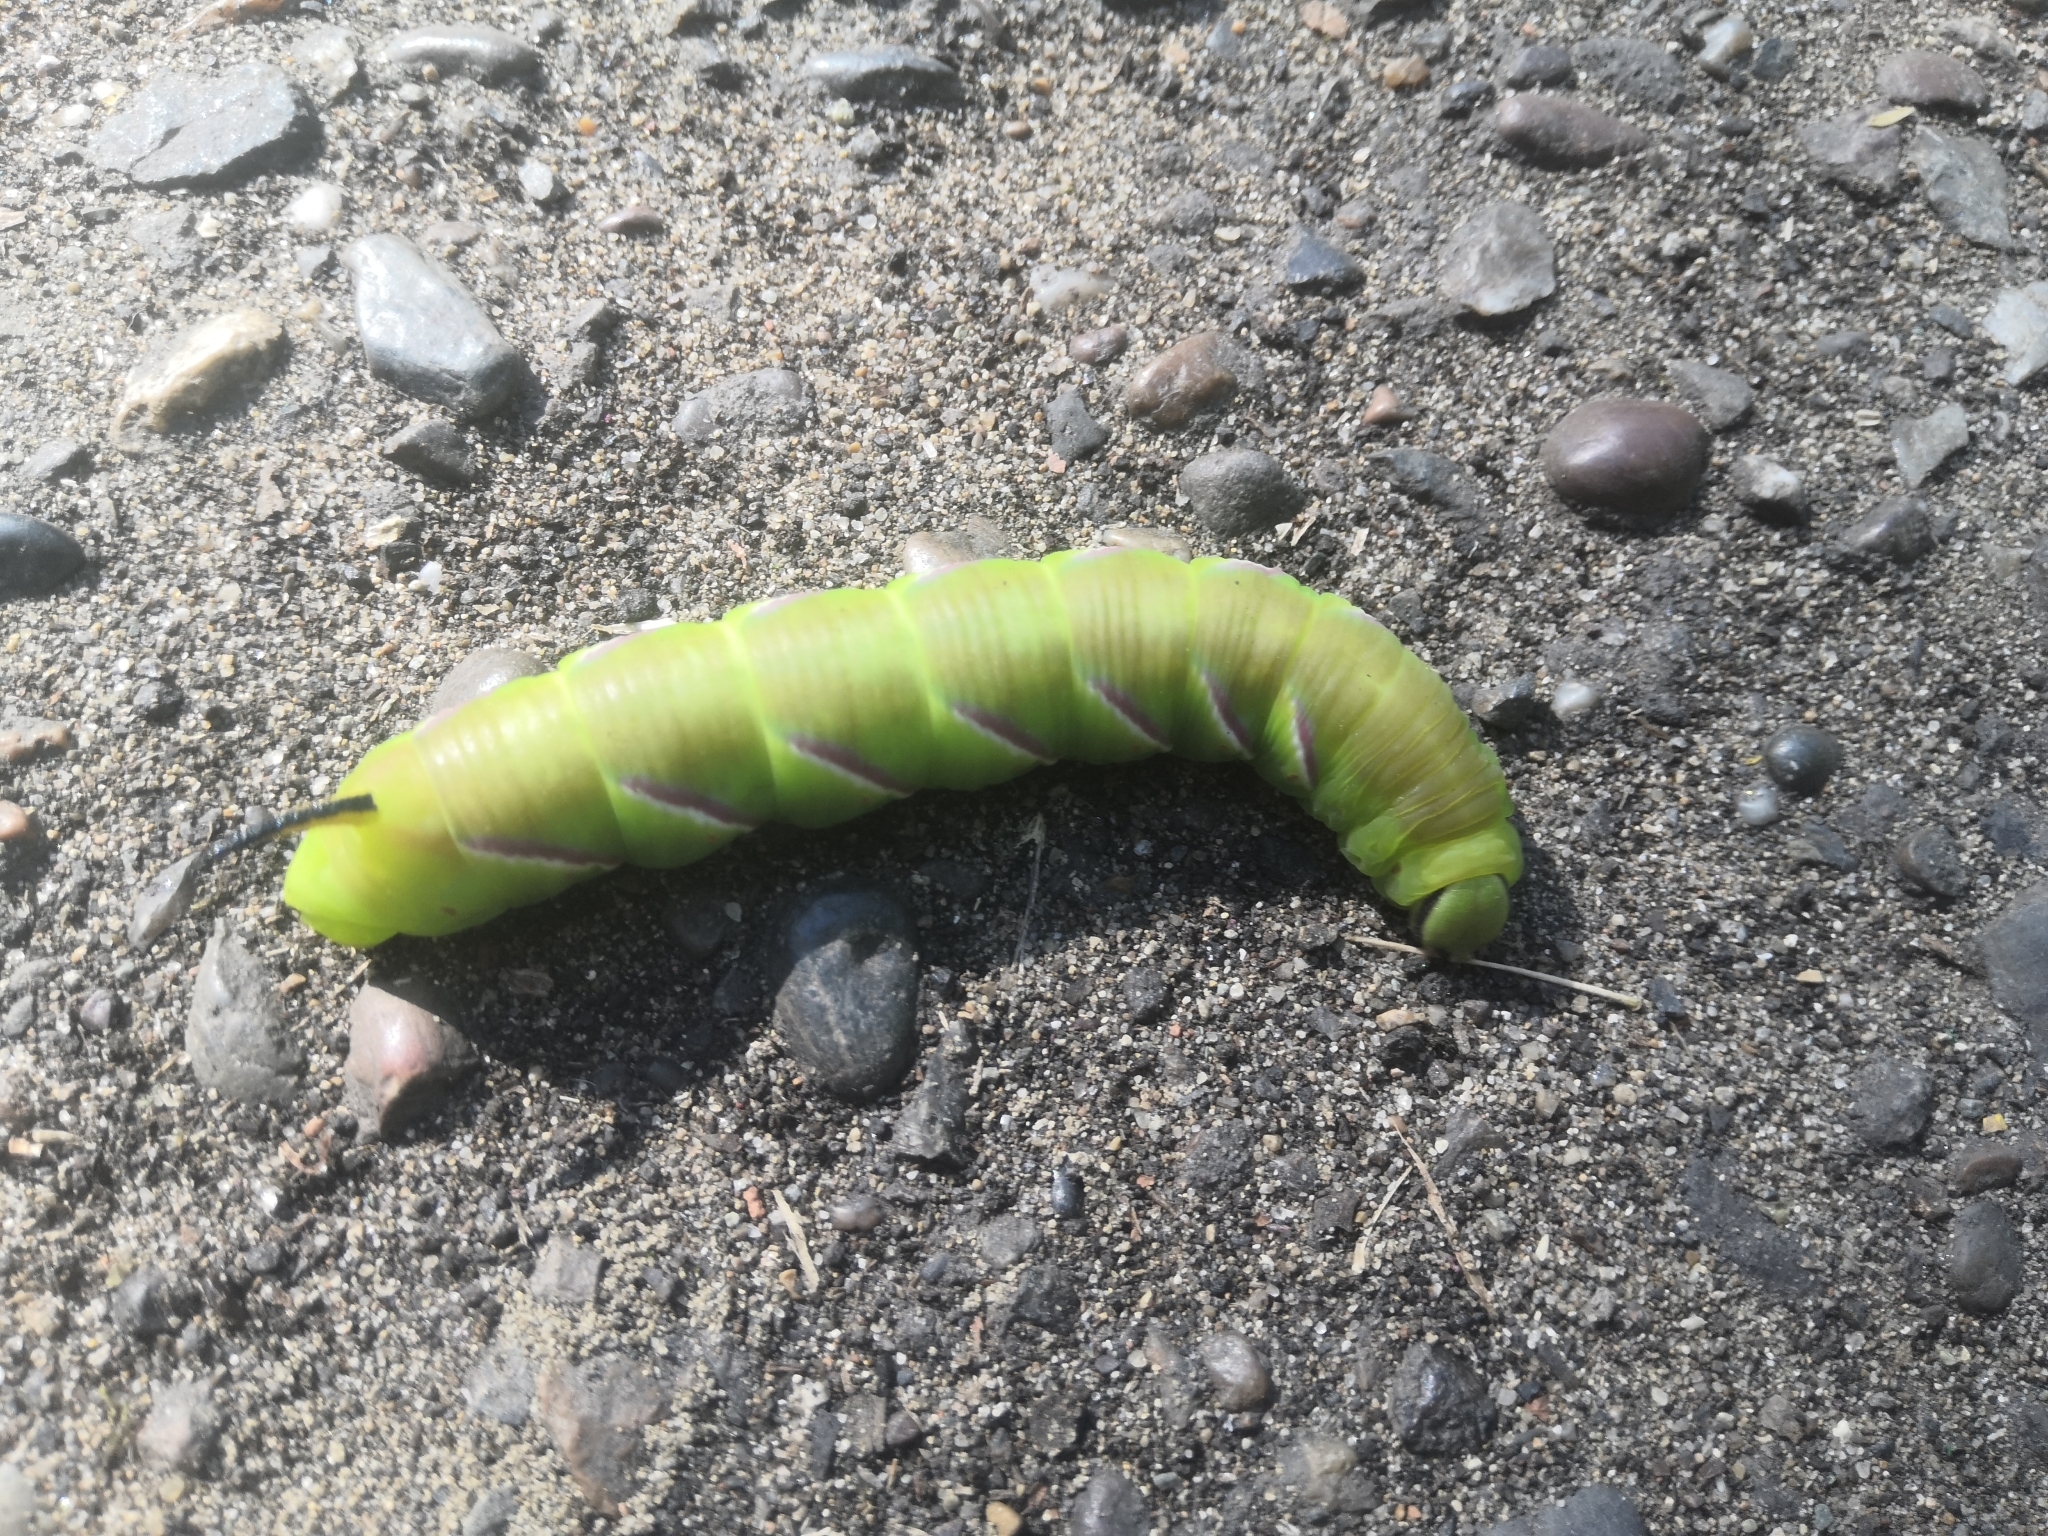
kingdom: Animalia
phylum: Arthropoda
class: Insecta
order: Lepidoptera
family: Sphingidae
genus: Sphinx
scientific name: Sphinx ligustri
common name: Privet hawk-moth
